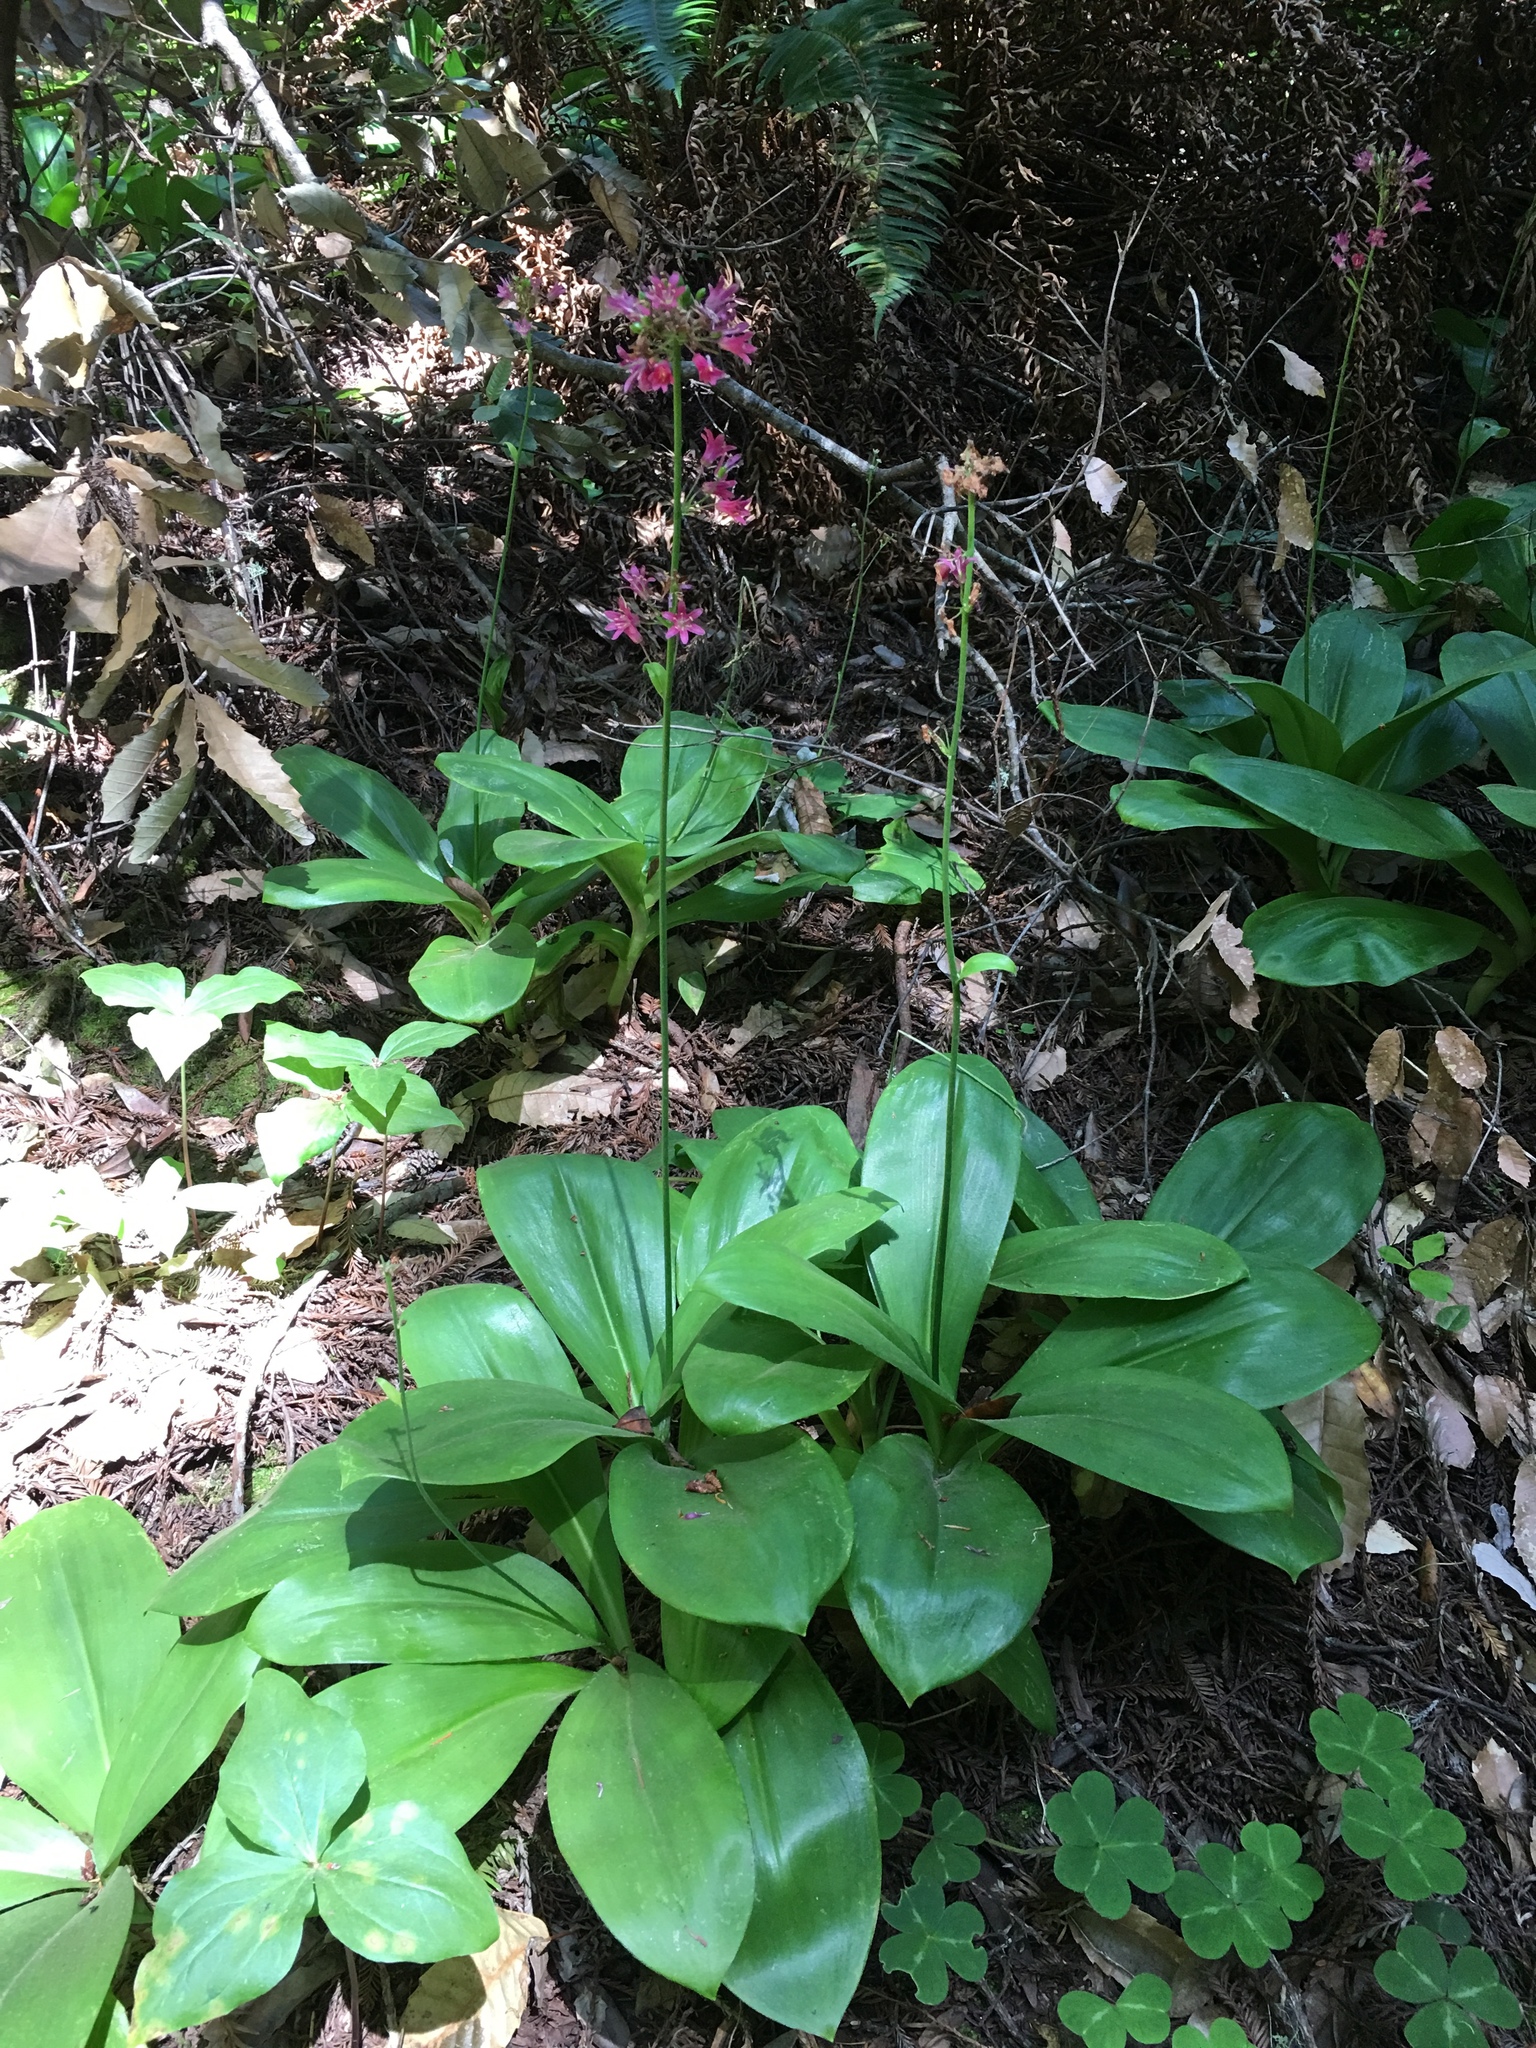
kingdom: Plantae
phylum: Tracheophyta
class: Liliopsida
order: Liliales
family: Liliaceae
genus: Clintonia
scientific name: Clintonia andrewsiana
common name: Red clintonia
